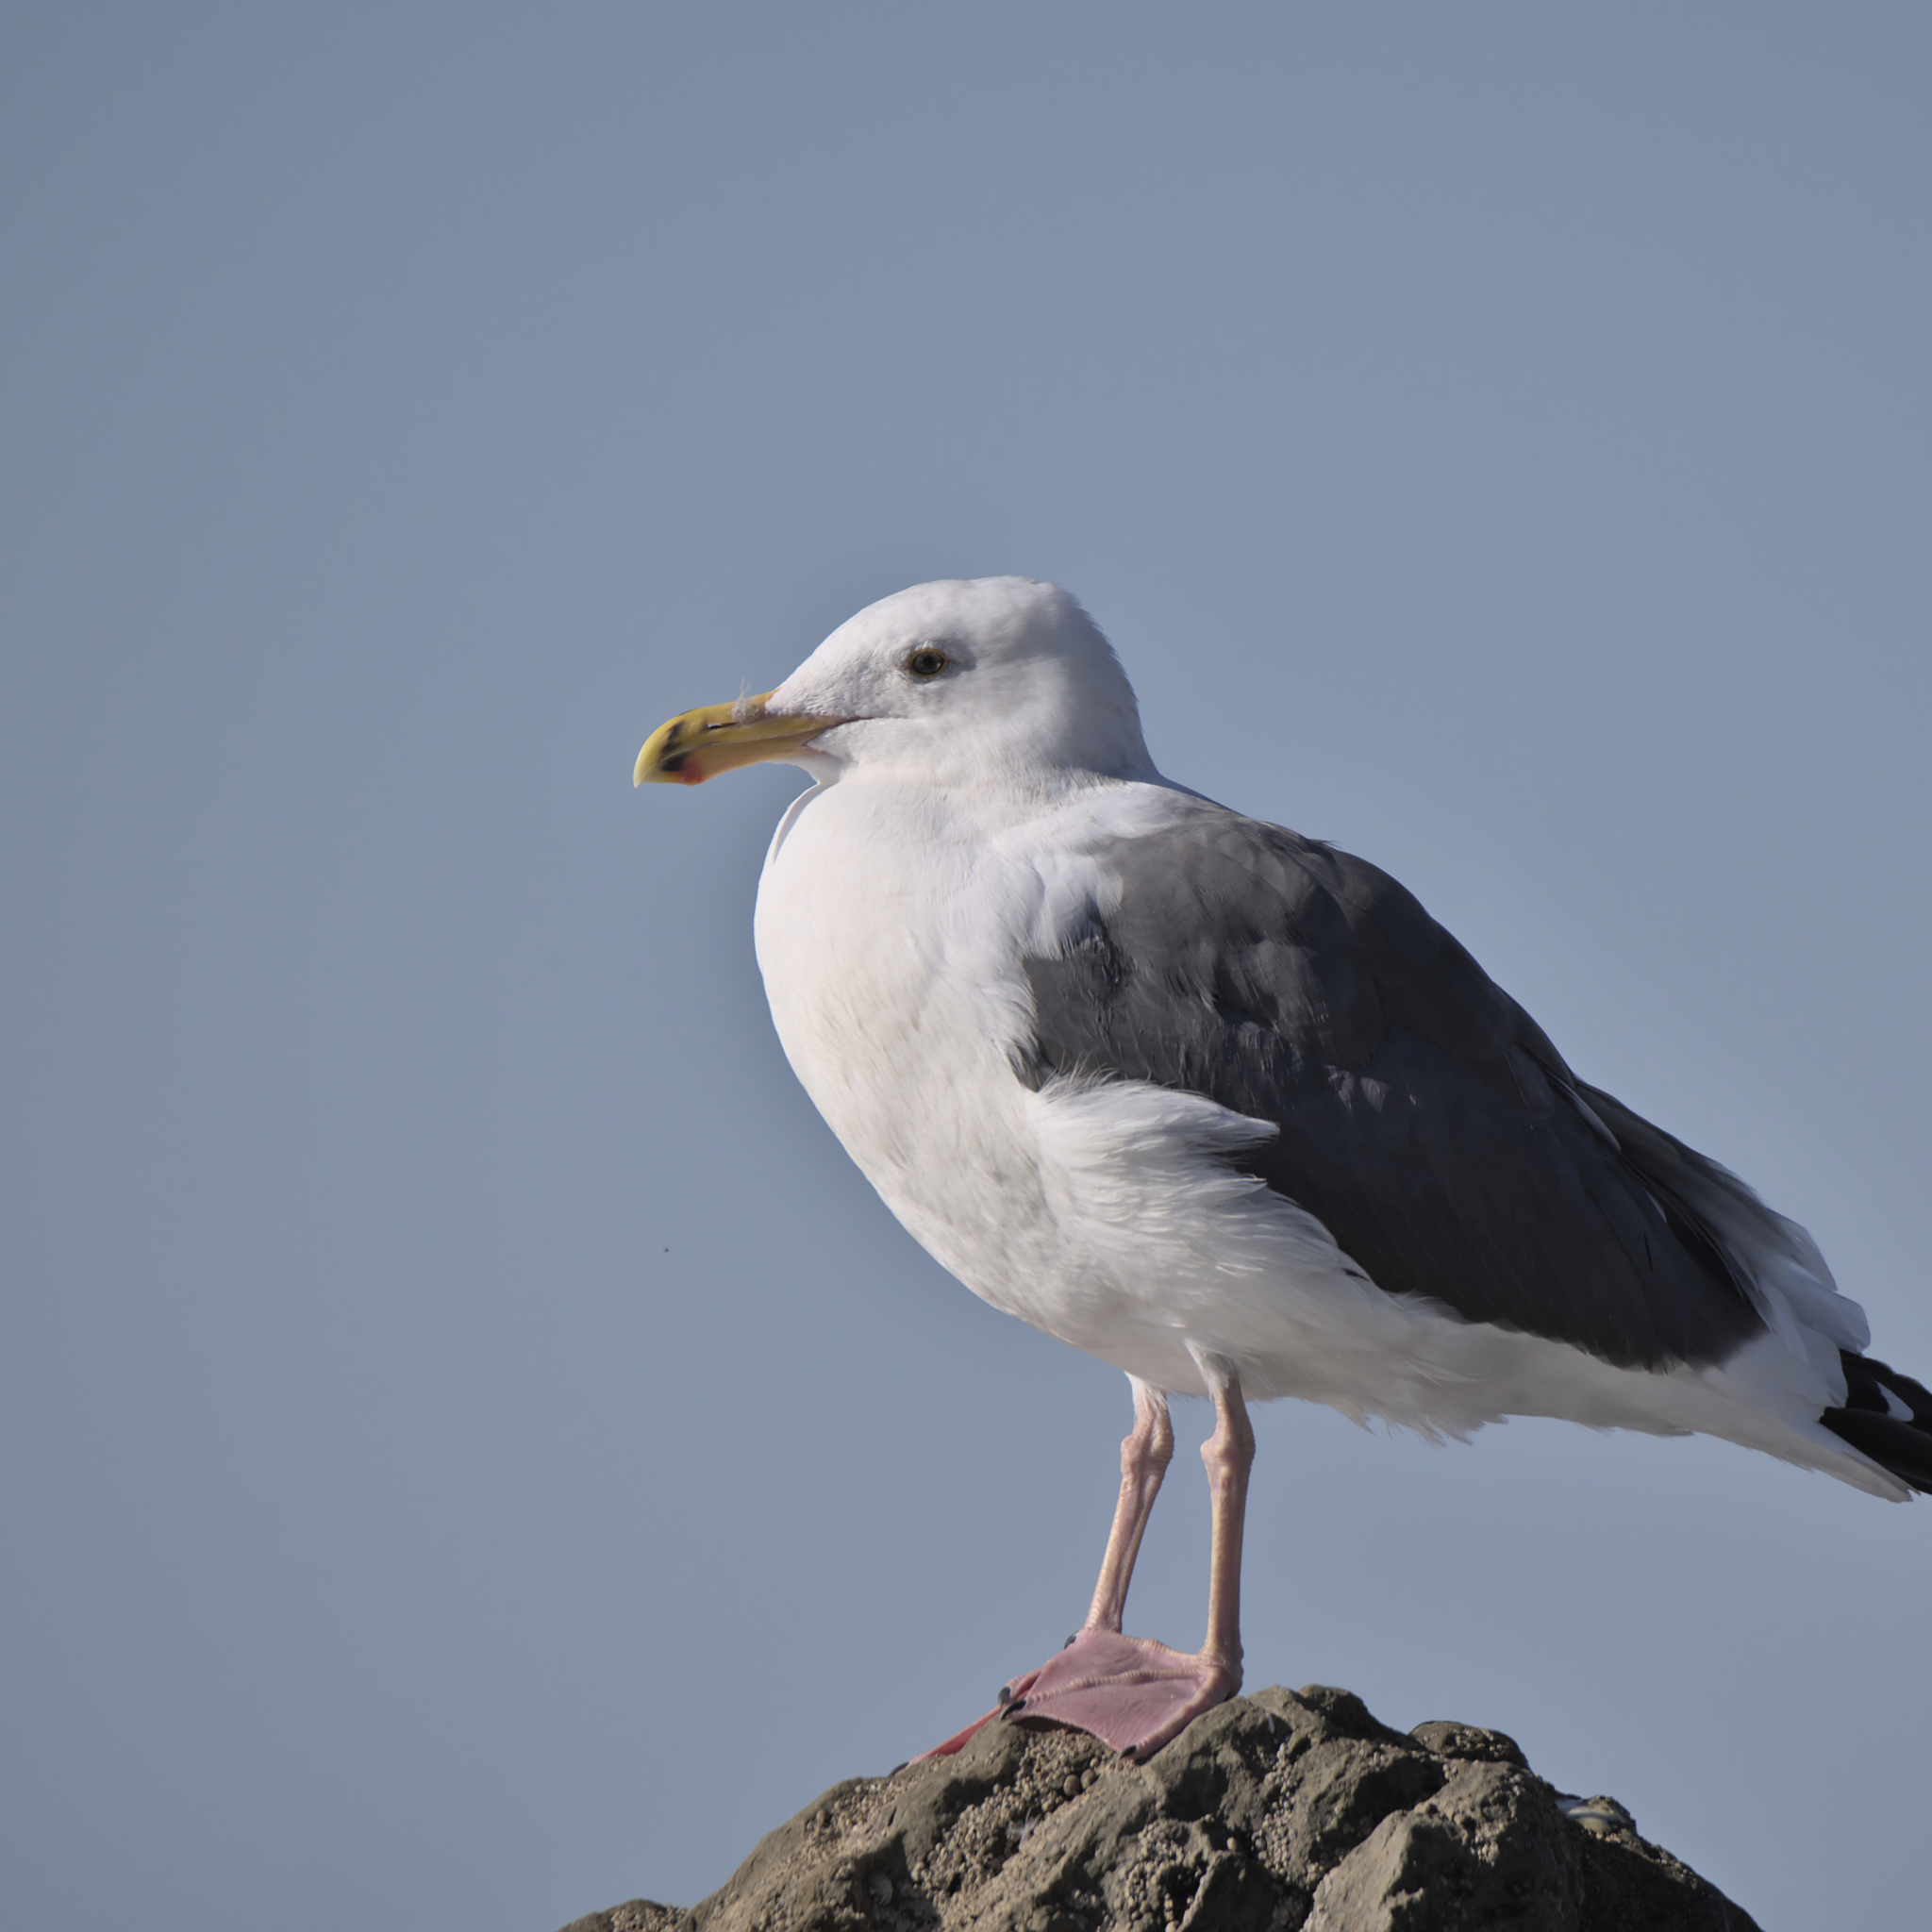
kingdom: Animalia
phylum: Chordata
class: Aves
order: Charadriiformes
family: Laridae
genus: Larus
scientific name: Larus occidentalis
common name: Western gull
